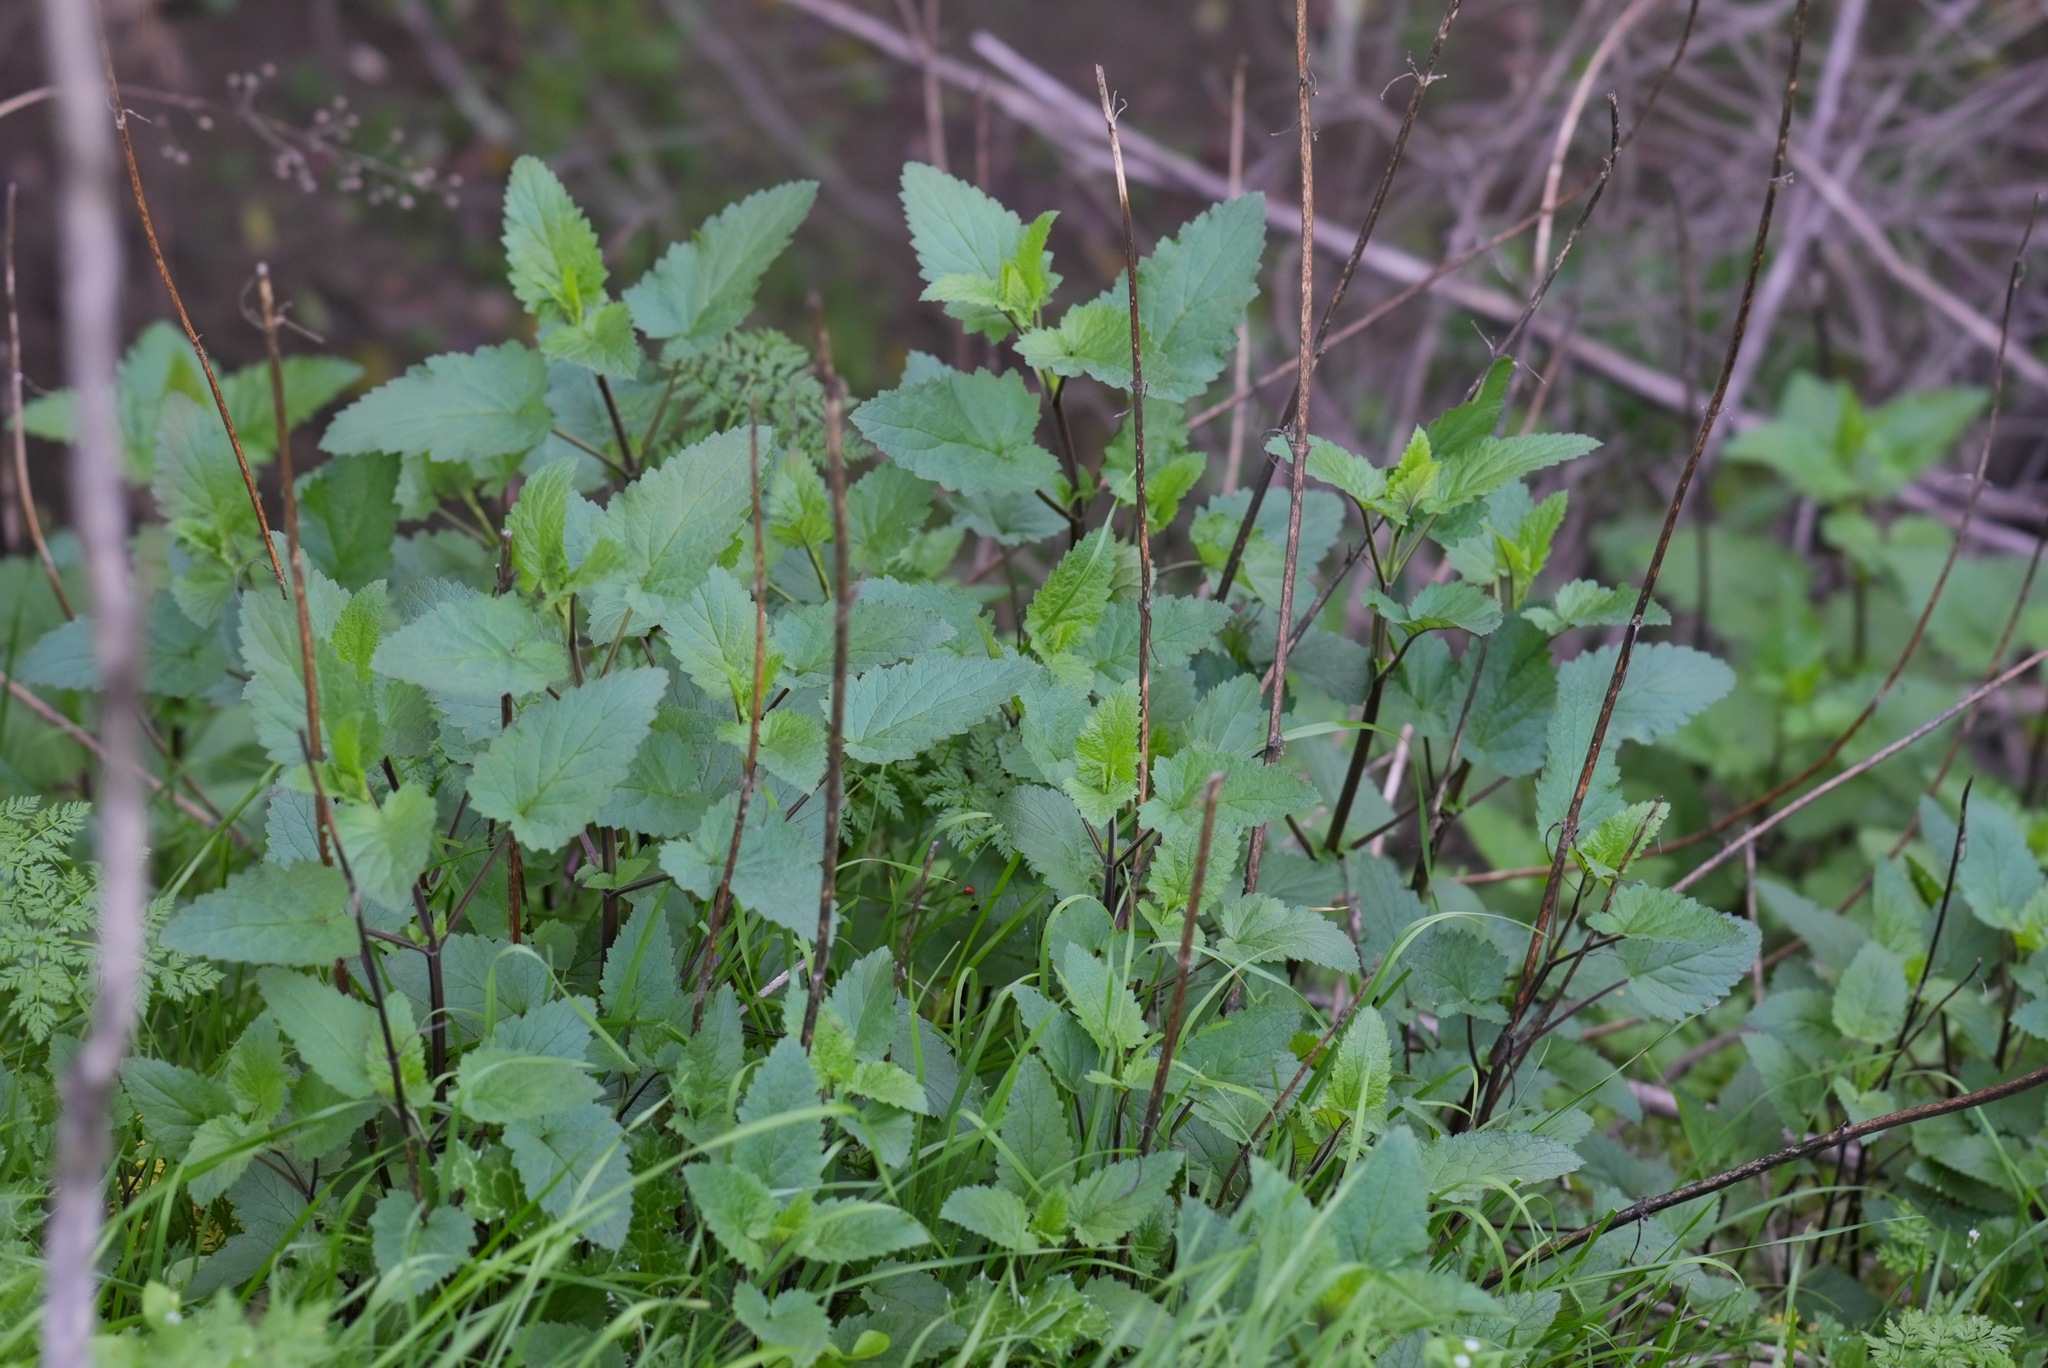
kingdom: Plantae
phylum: Tracheophyta
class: Magnoliopsida
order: Lamiales
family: Scrophulariaceae
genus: Scrophularia
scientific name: Scrophularia californica
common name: California figwort
